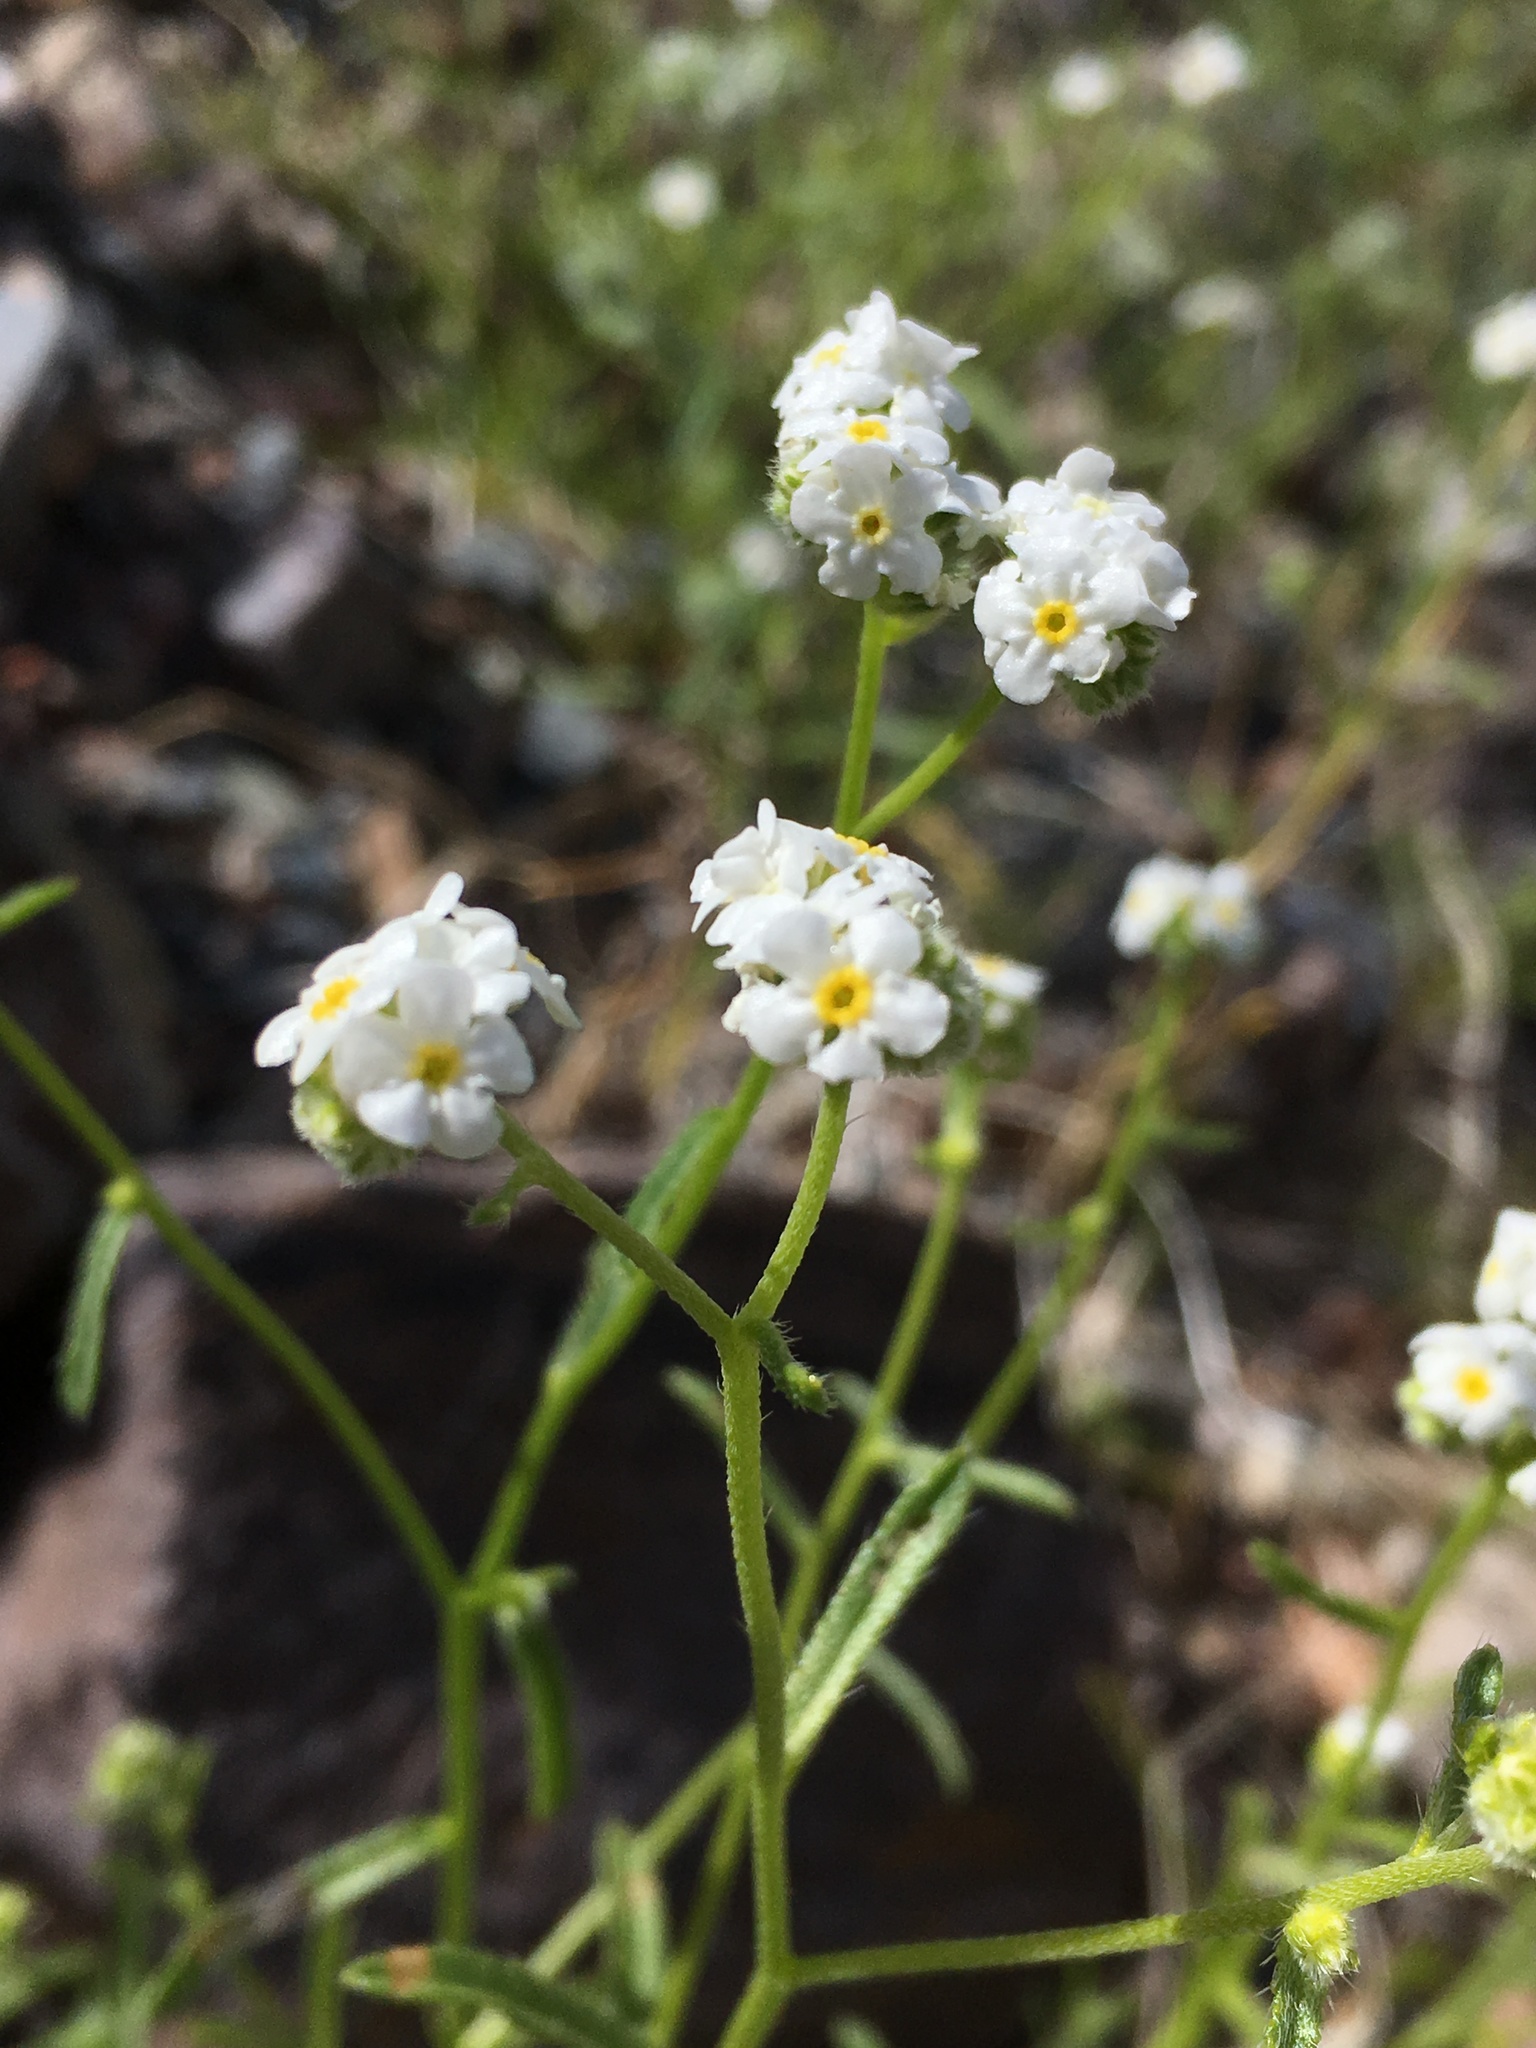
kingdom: Plantae
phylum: Tracheophyta
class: Magnoliopsida
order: Boraginales
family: Boraginaceae
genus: Cryptantha
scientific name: Cryptantha utahensis
